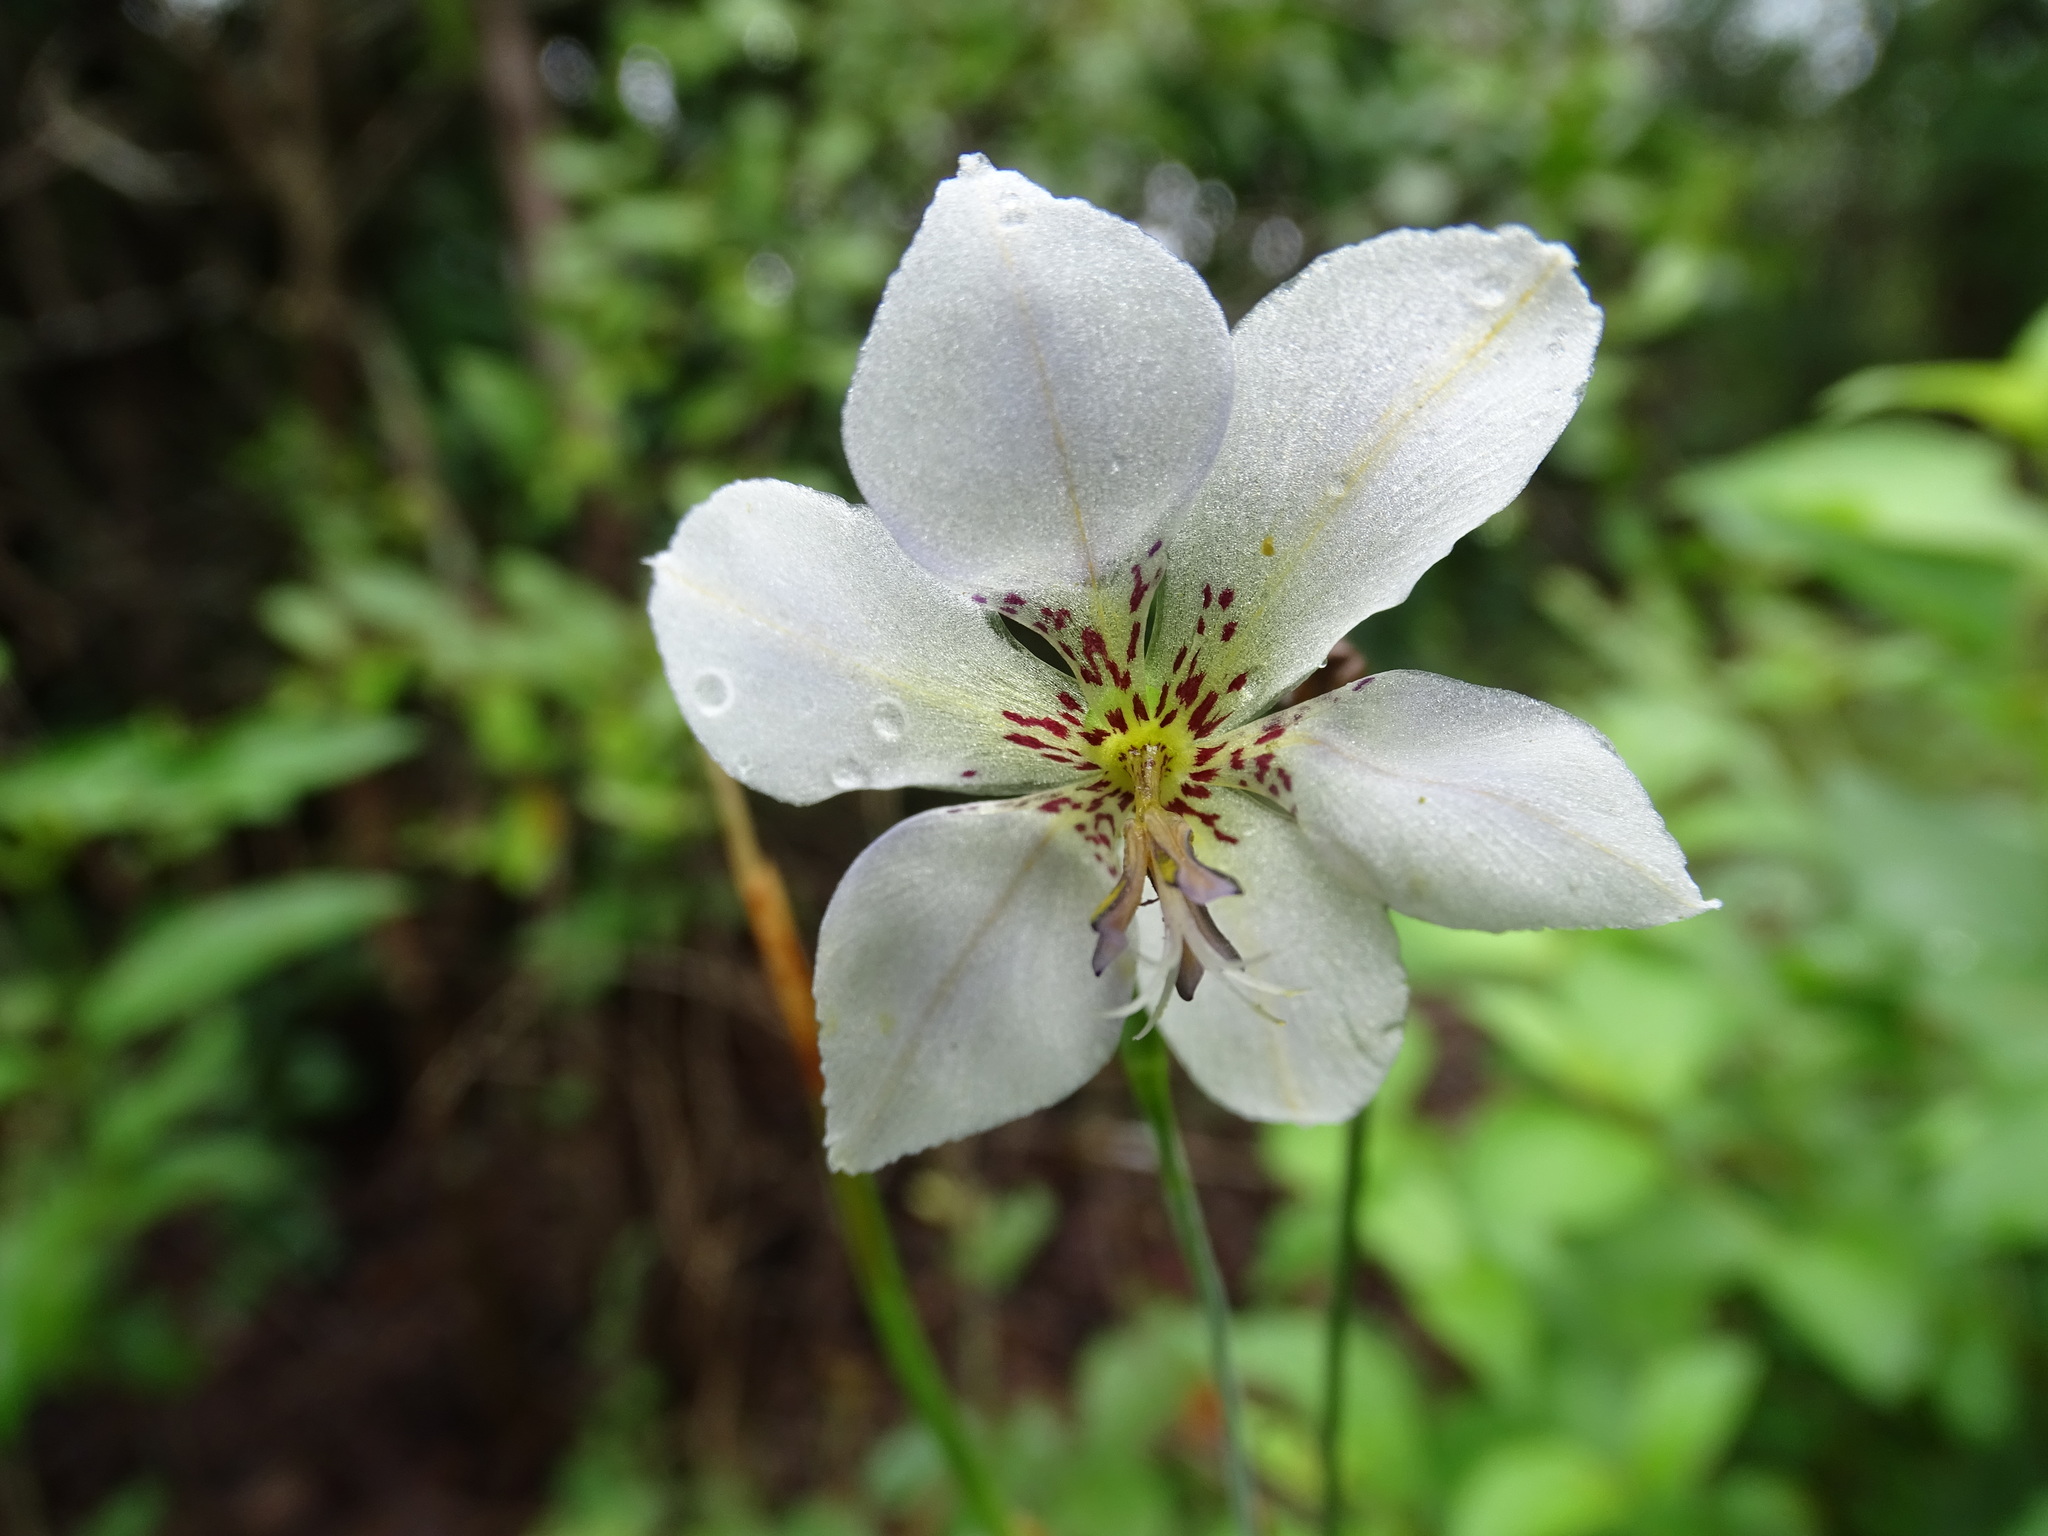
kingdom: Plantae
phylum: Tracheophyta
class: Liliopsida
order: Asparagales
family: Iridaceae
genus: Alophia
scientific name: Alophia silvestris
